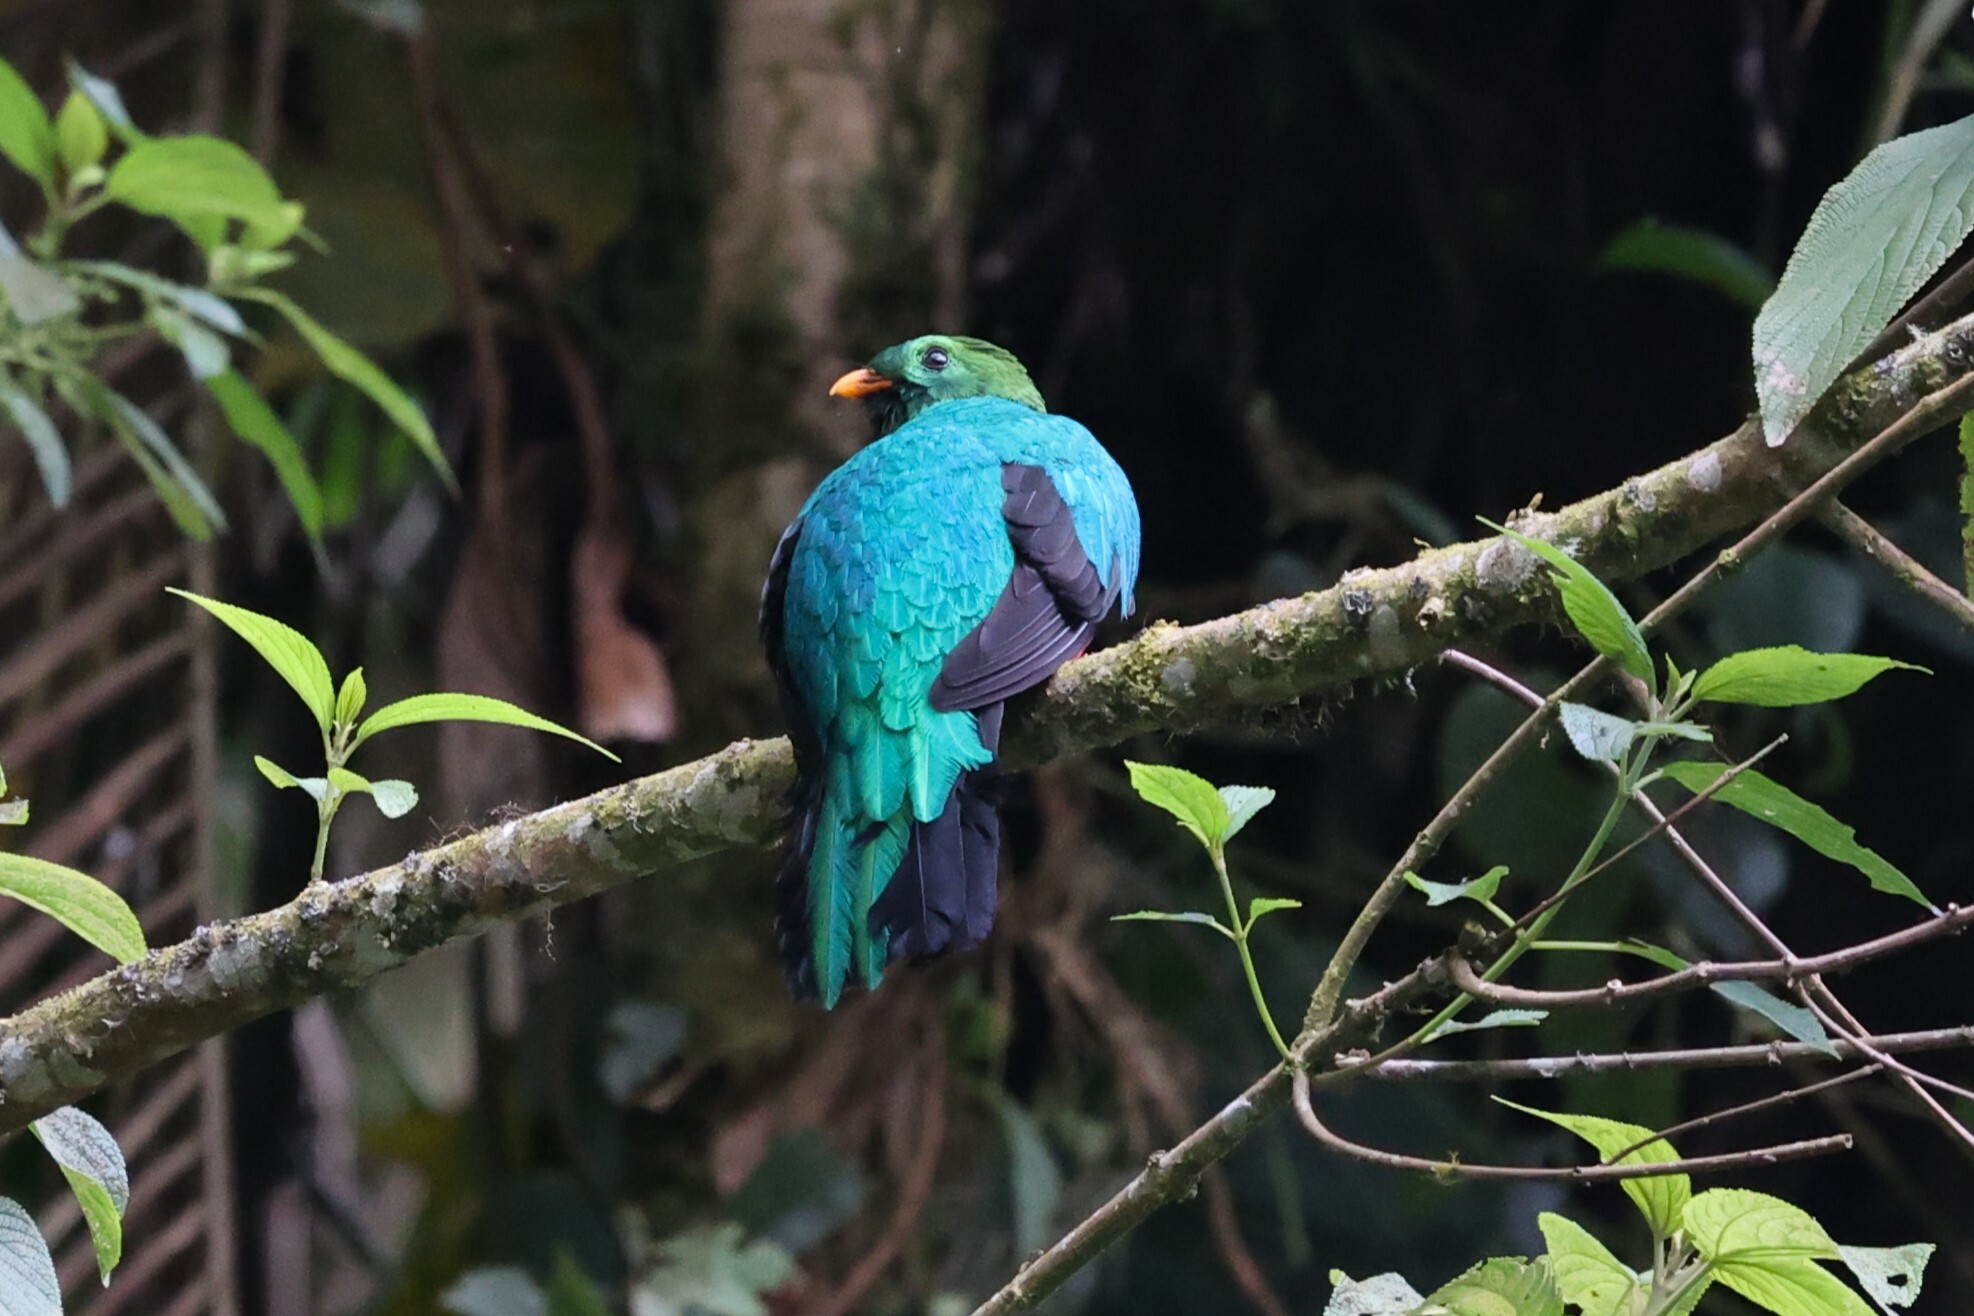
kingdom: Animalia
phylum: Chordata
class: Aves
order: Trogoniformes
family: Trogonidae
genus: Pharomachrus
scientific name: Pharomachrus auriceps
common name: Golden-headed quetzal
